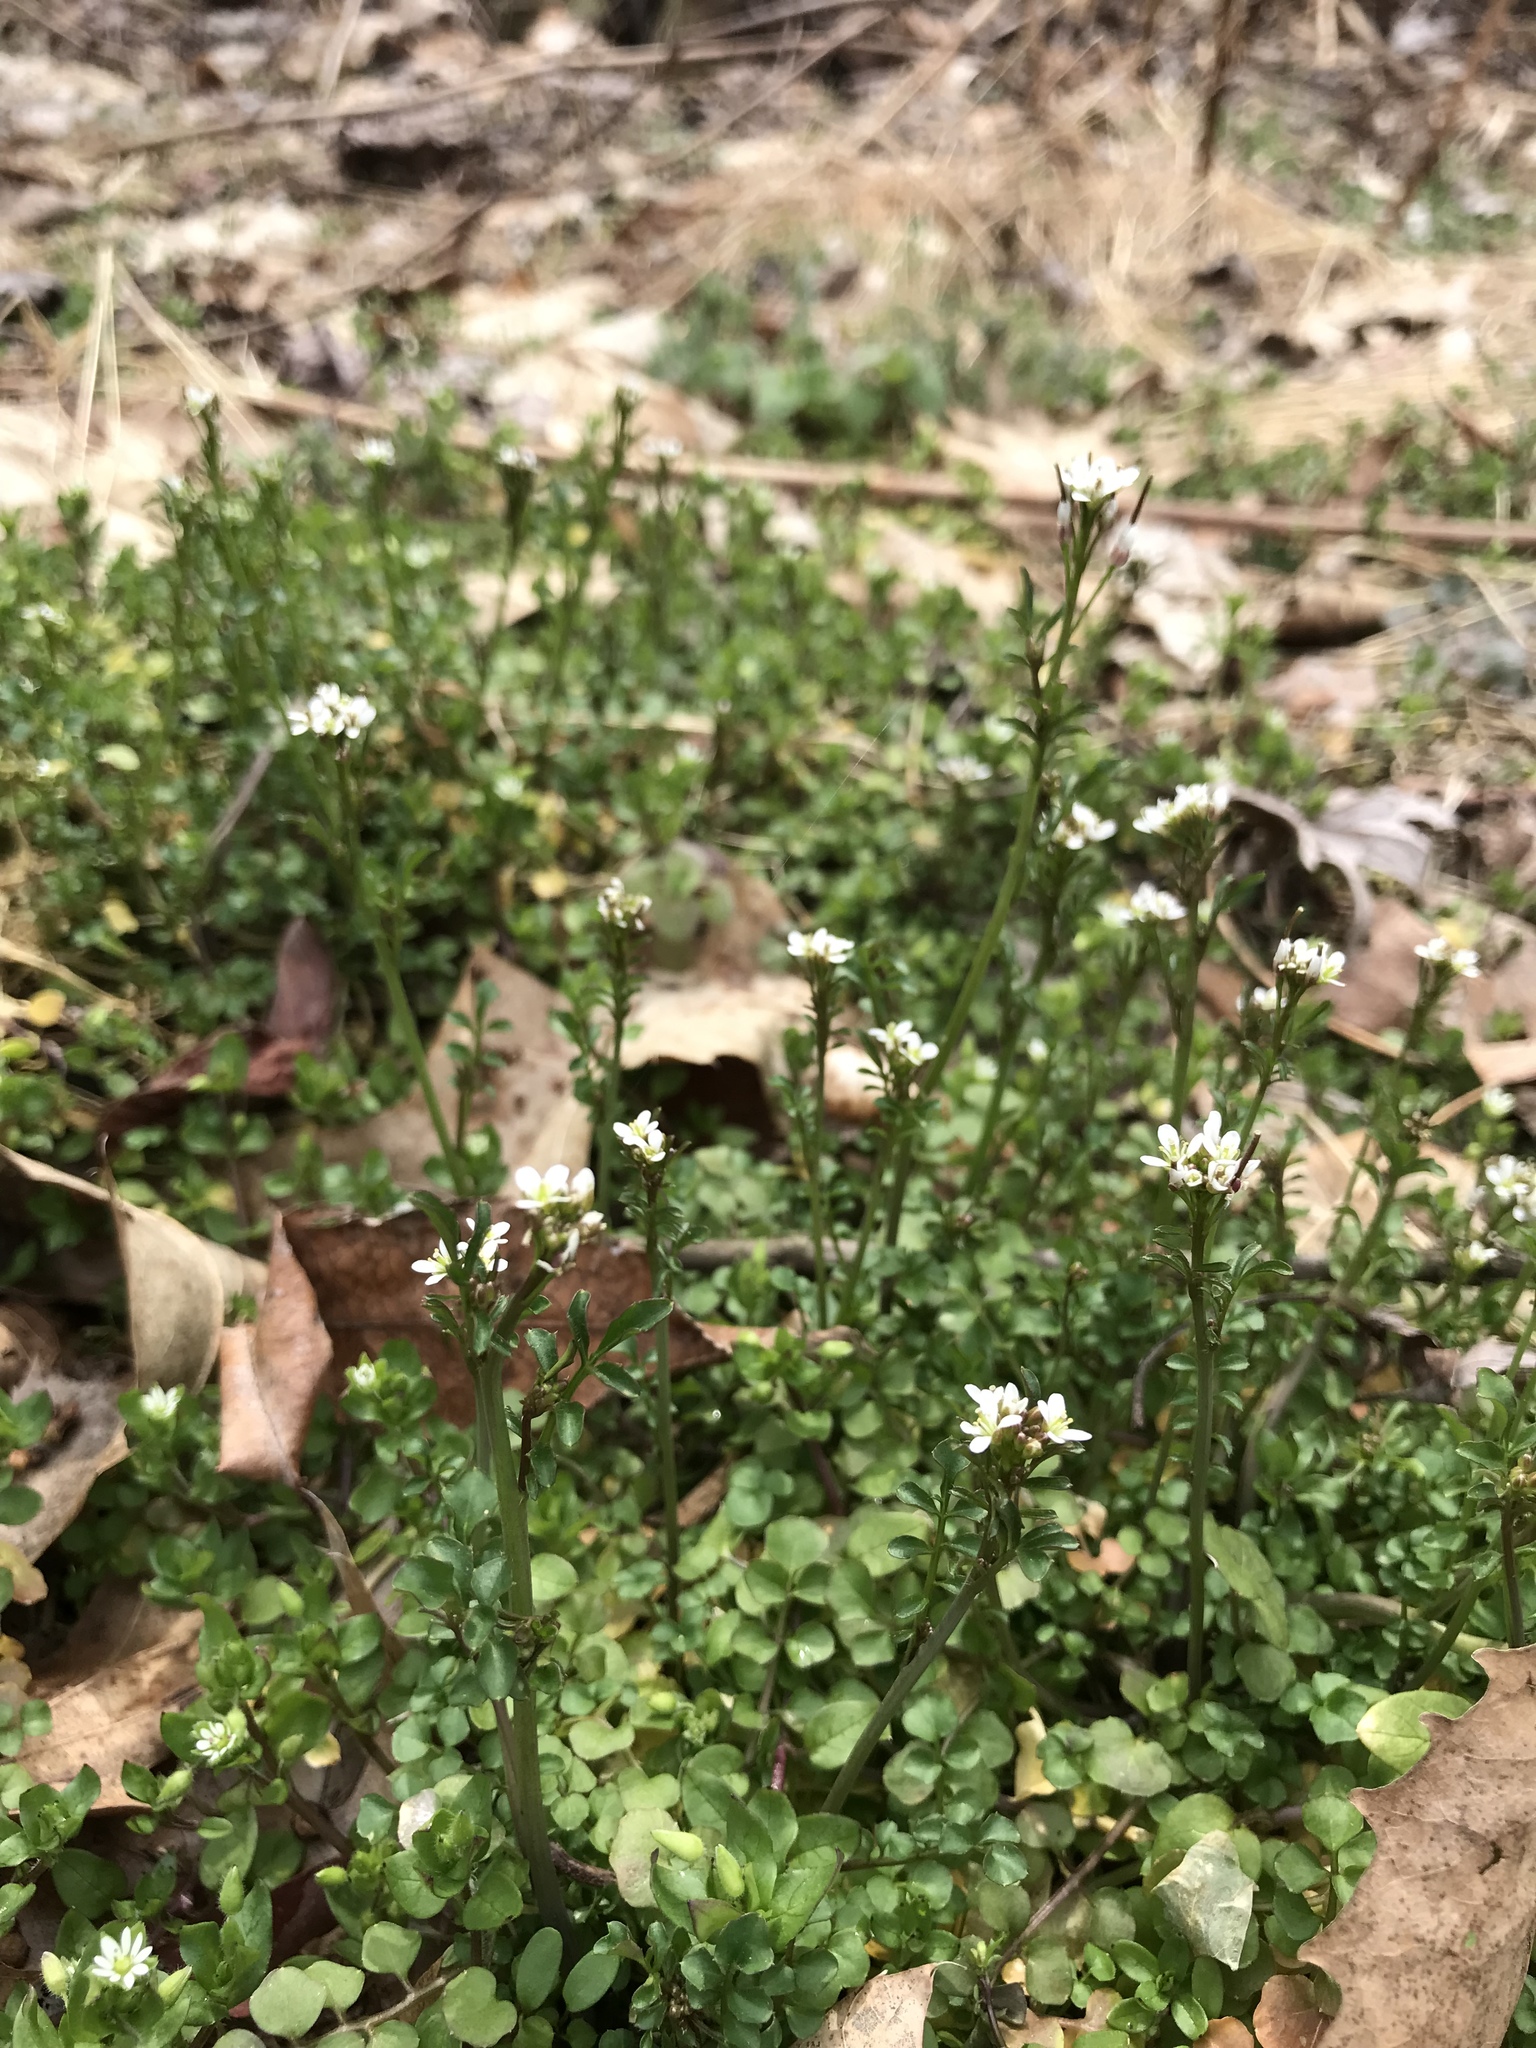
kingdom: Plantae
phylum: Tracheophyta
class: Magnoliopsida
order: Brassicales
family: Brassicaceae
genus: Cardamine
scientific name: Cardamine hirsuta
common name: Hairy bittercress
